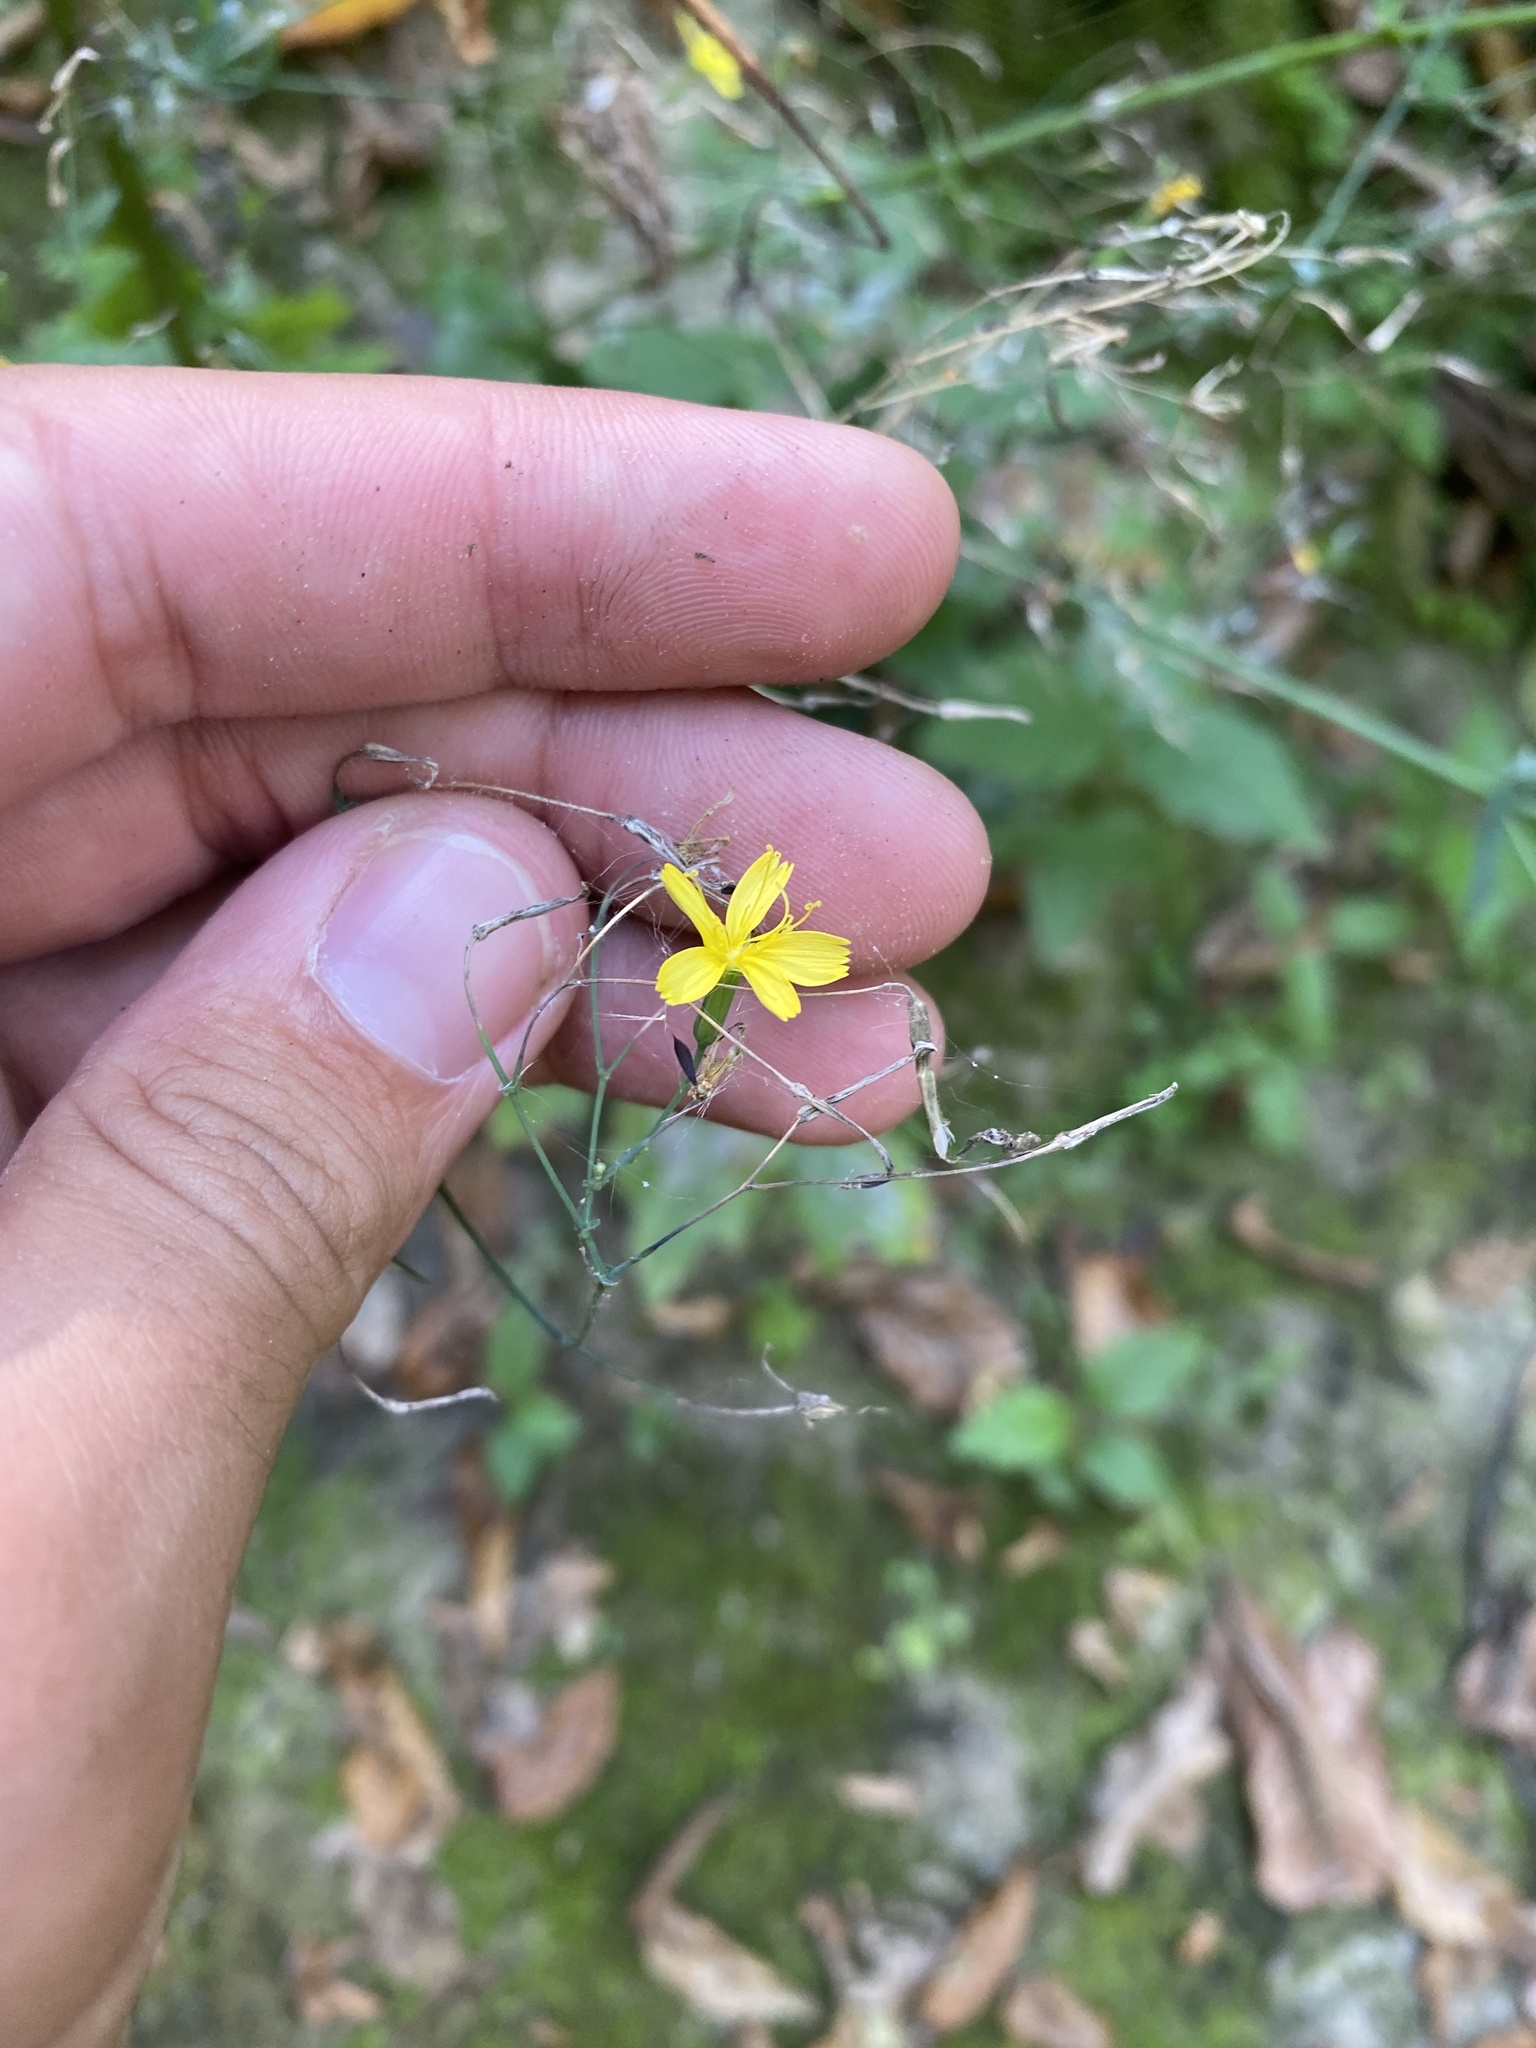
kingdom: Plantae
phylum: Tracheophyta
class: Magnoliopsida
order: Asterales
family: Asteraceae
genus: Mycelis
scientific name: Mycelis muralis
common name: Wall lettuce
